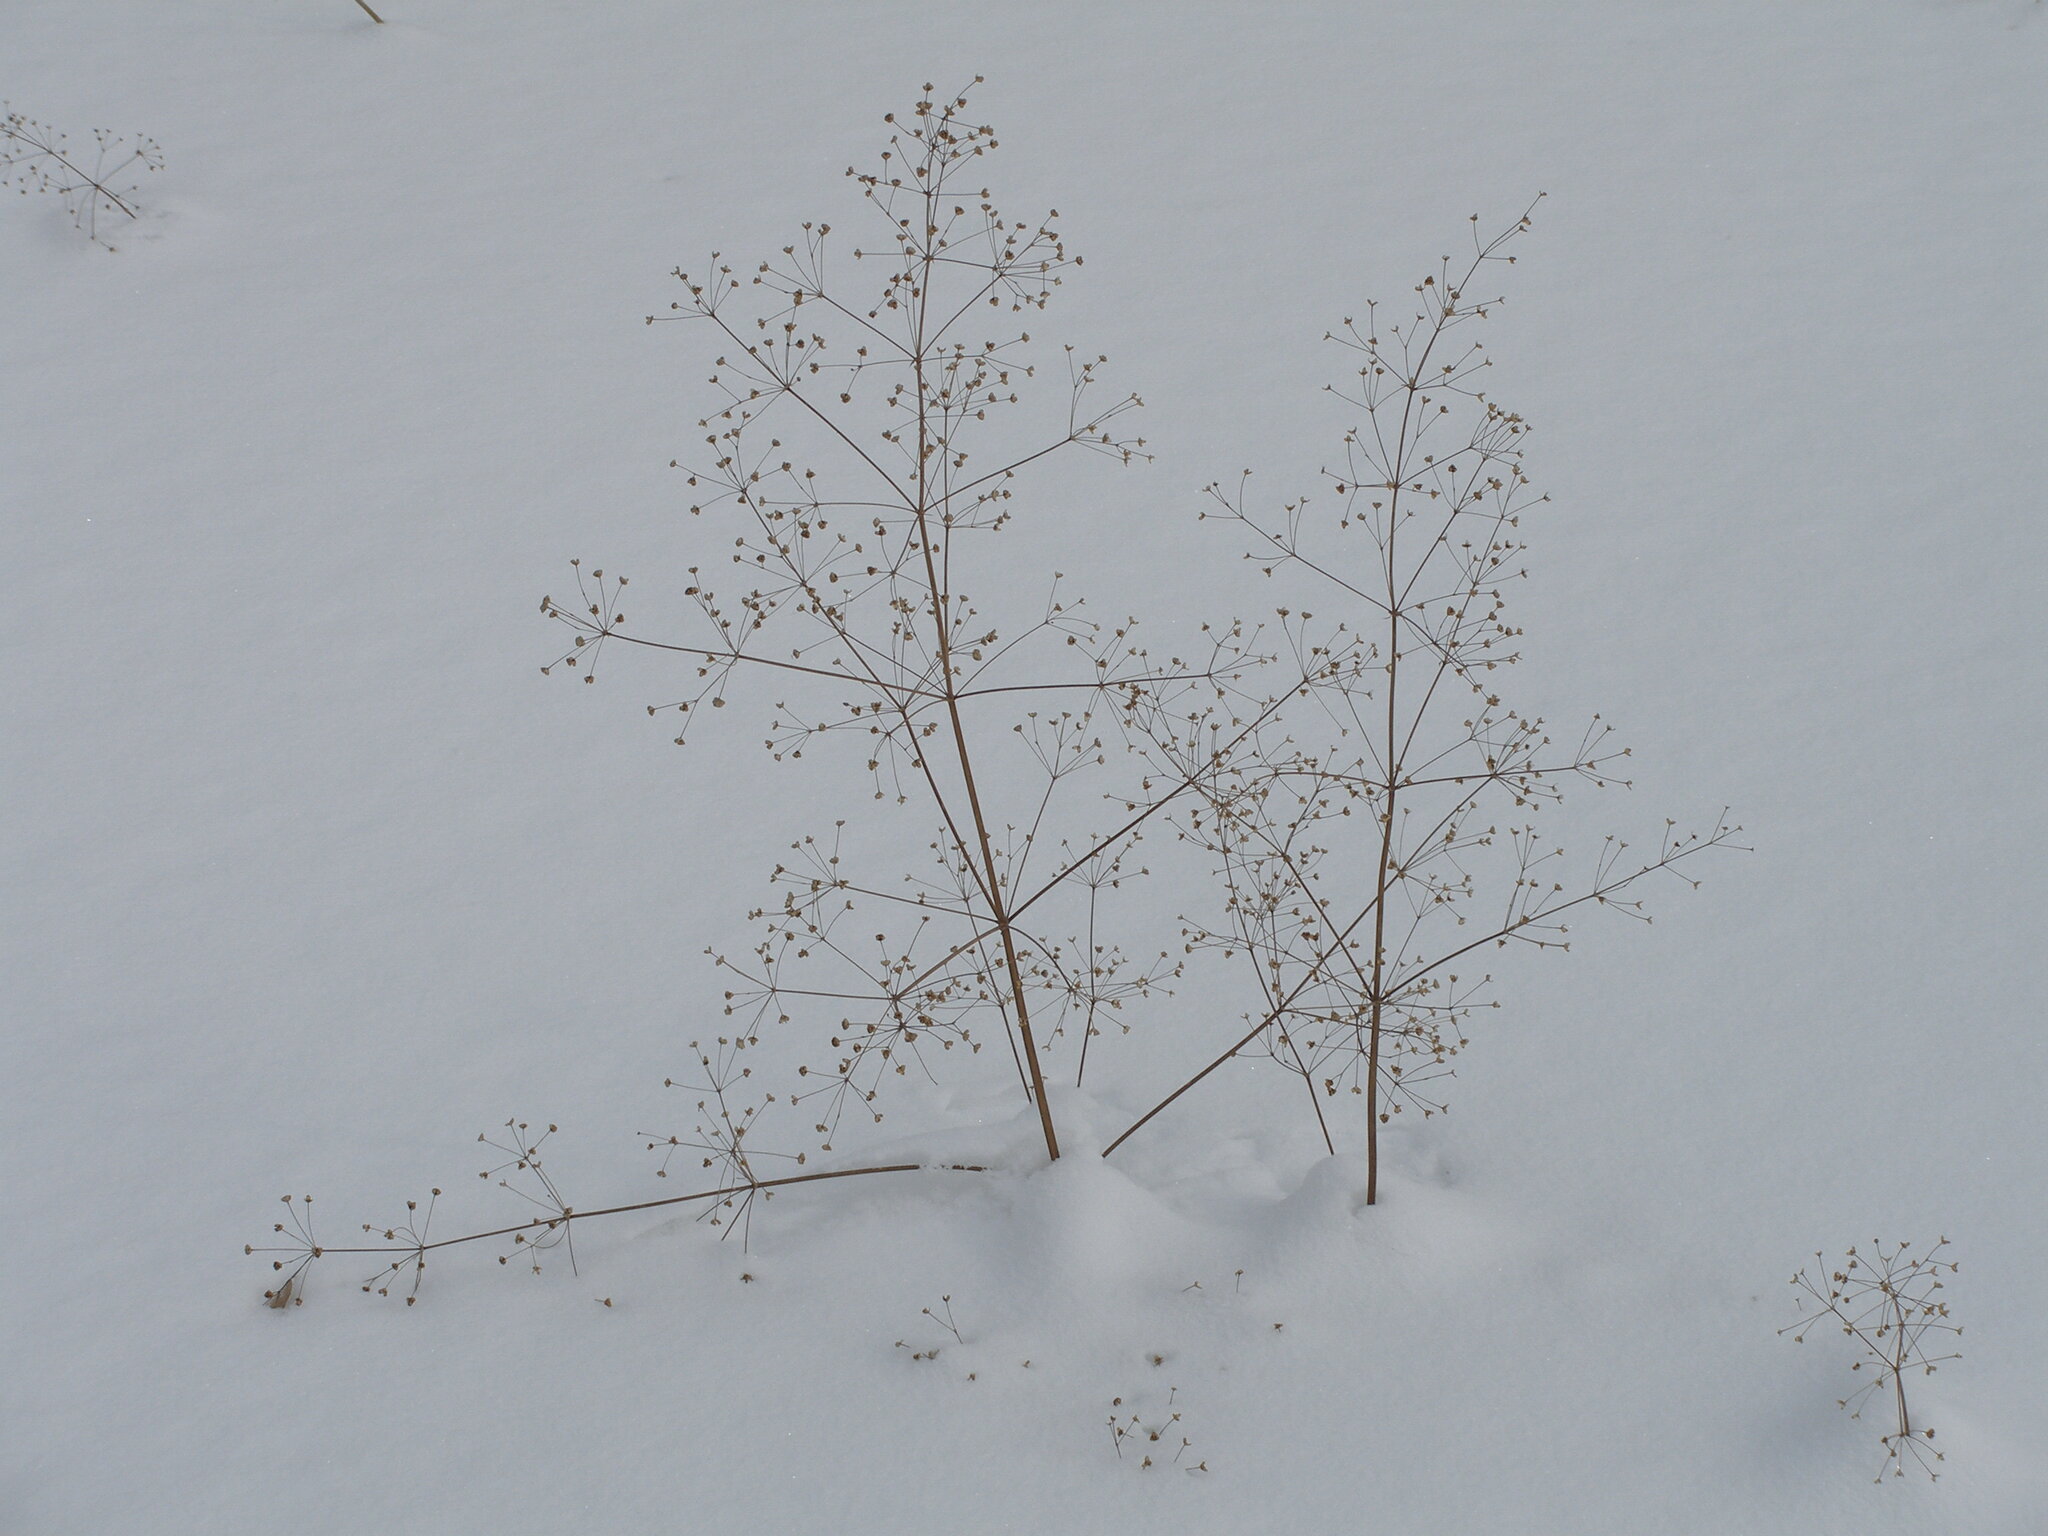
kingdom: Plantae
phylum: Tracheophyta
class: Liliopsida
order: Alismatales
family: Alismataceae
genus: Alisma
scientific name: Alisma plantago-aquatica
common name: Water-plantain
